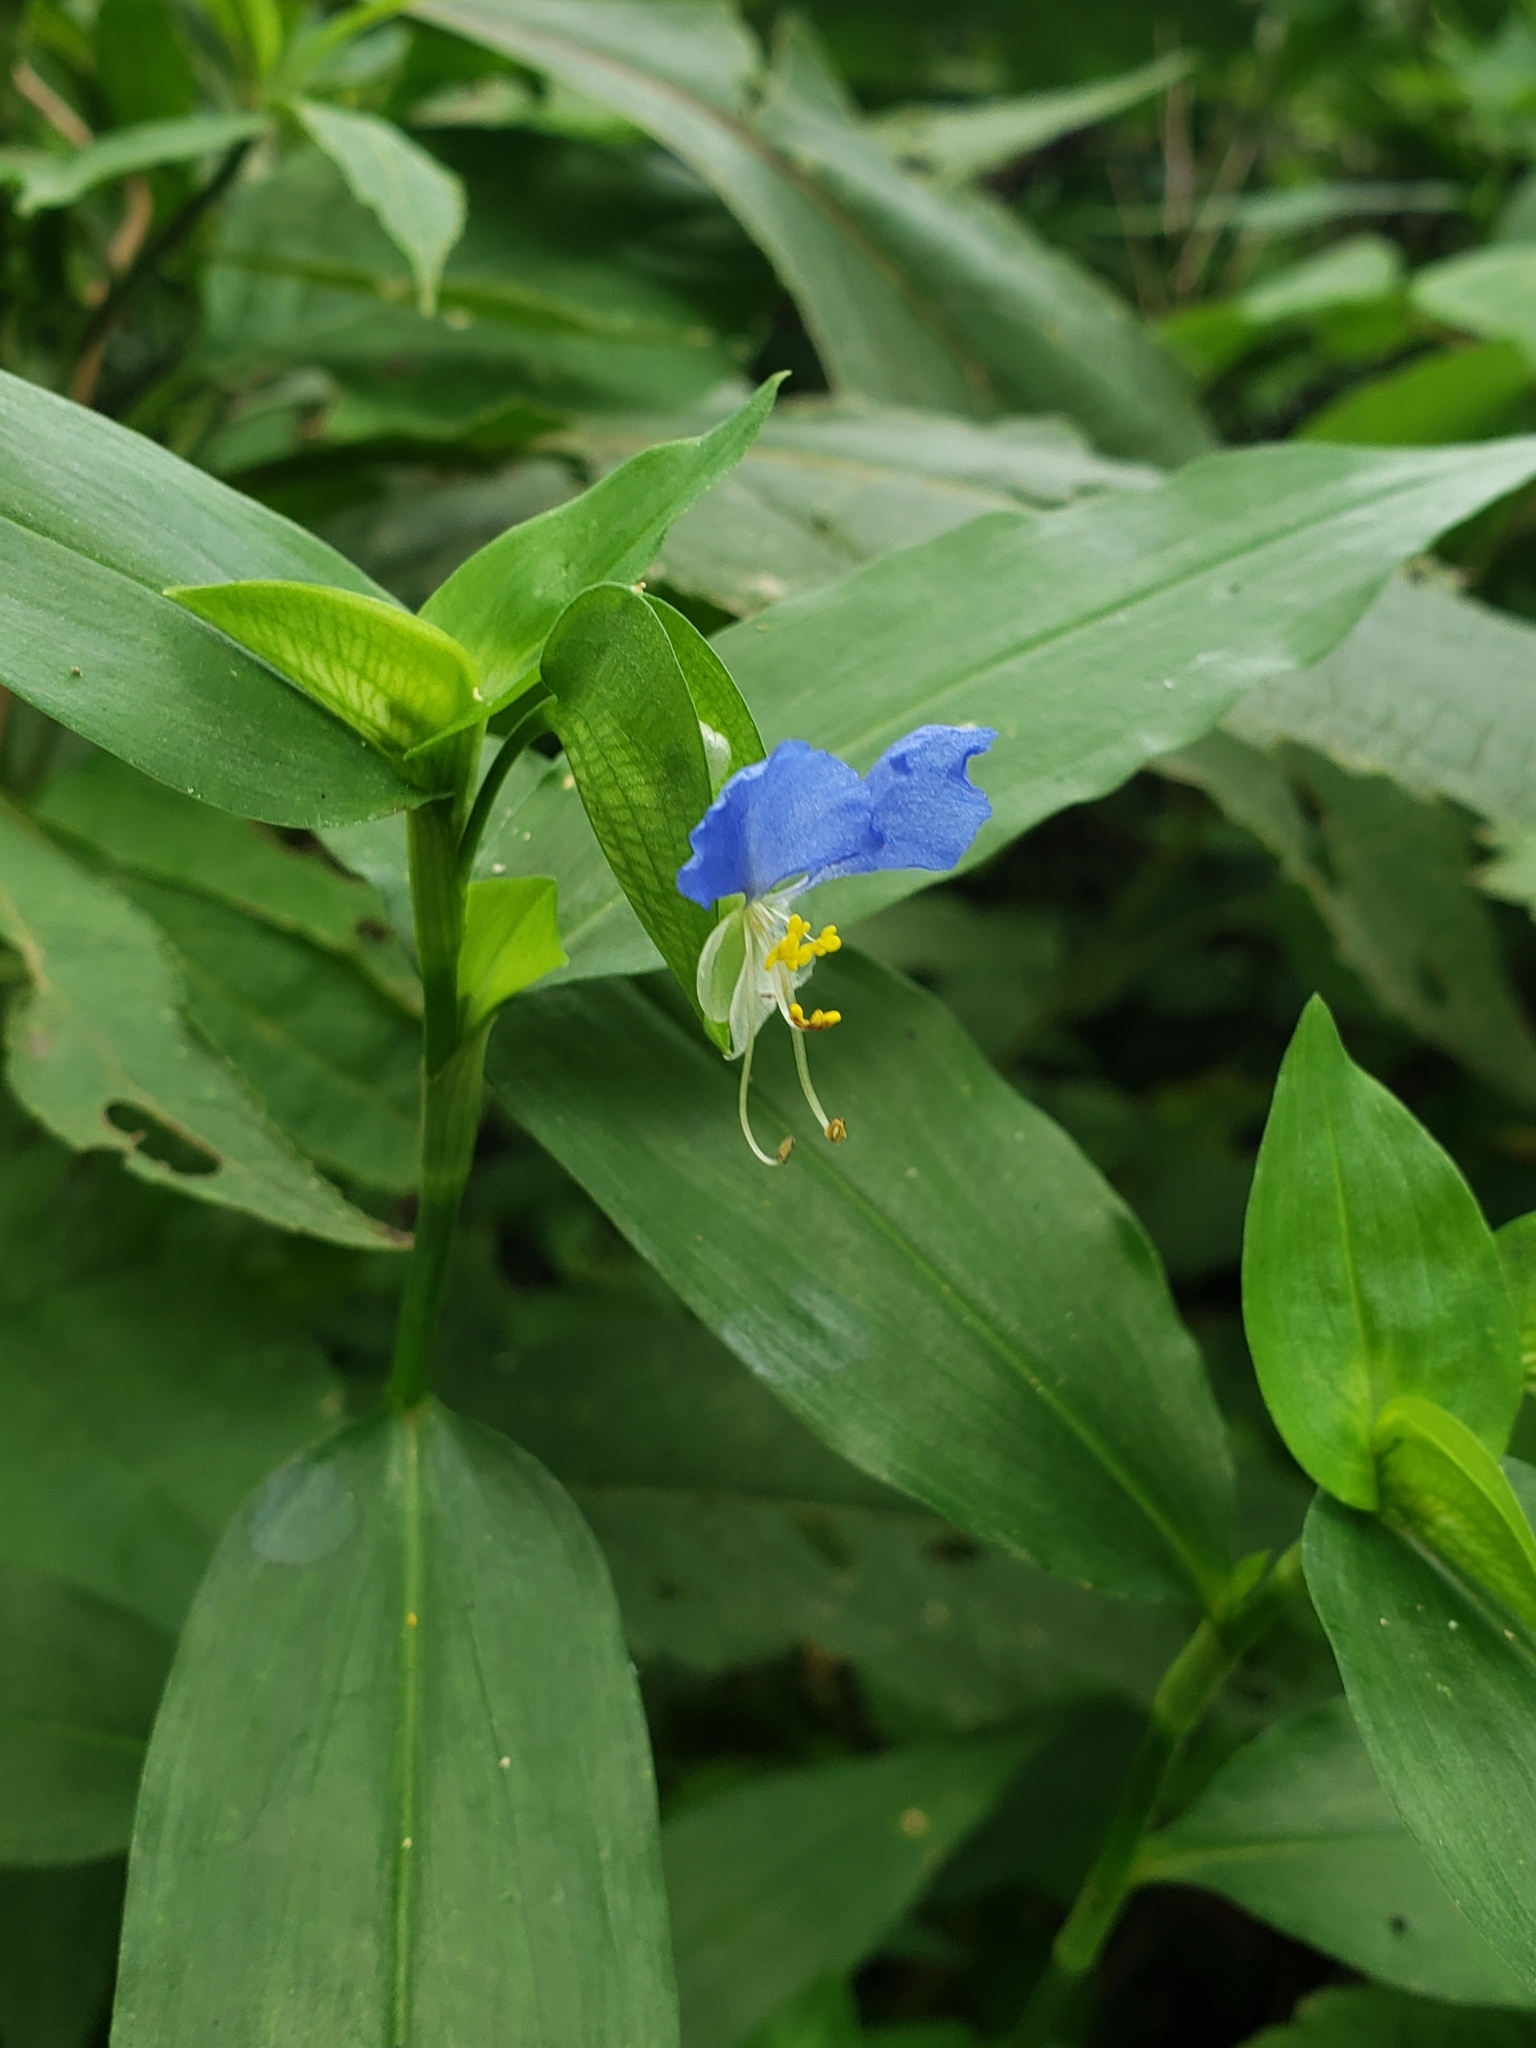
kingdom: Plantae
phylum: Tracheophyta
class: Liliopsida
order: Commelinales
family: Commelinaceae
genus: Commelina
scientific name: Commelina communis
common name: Asiatic dayflower
